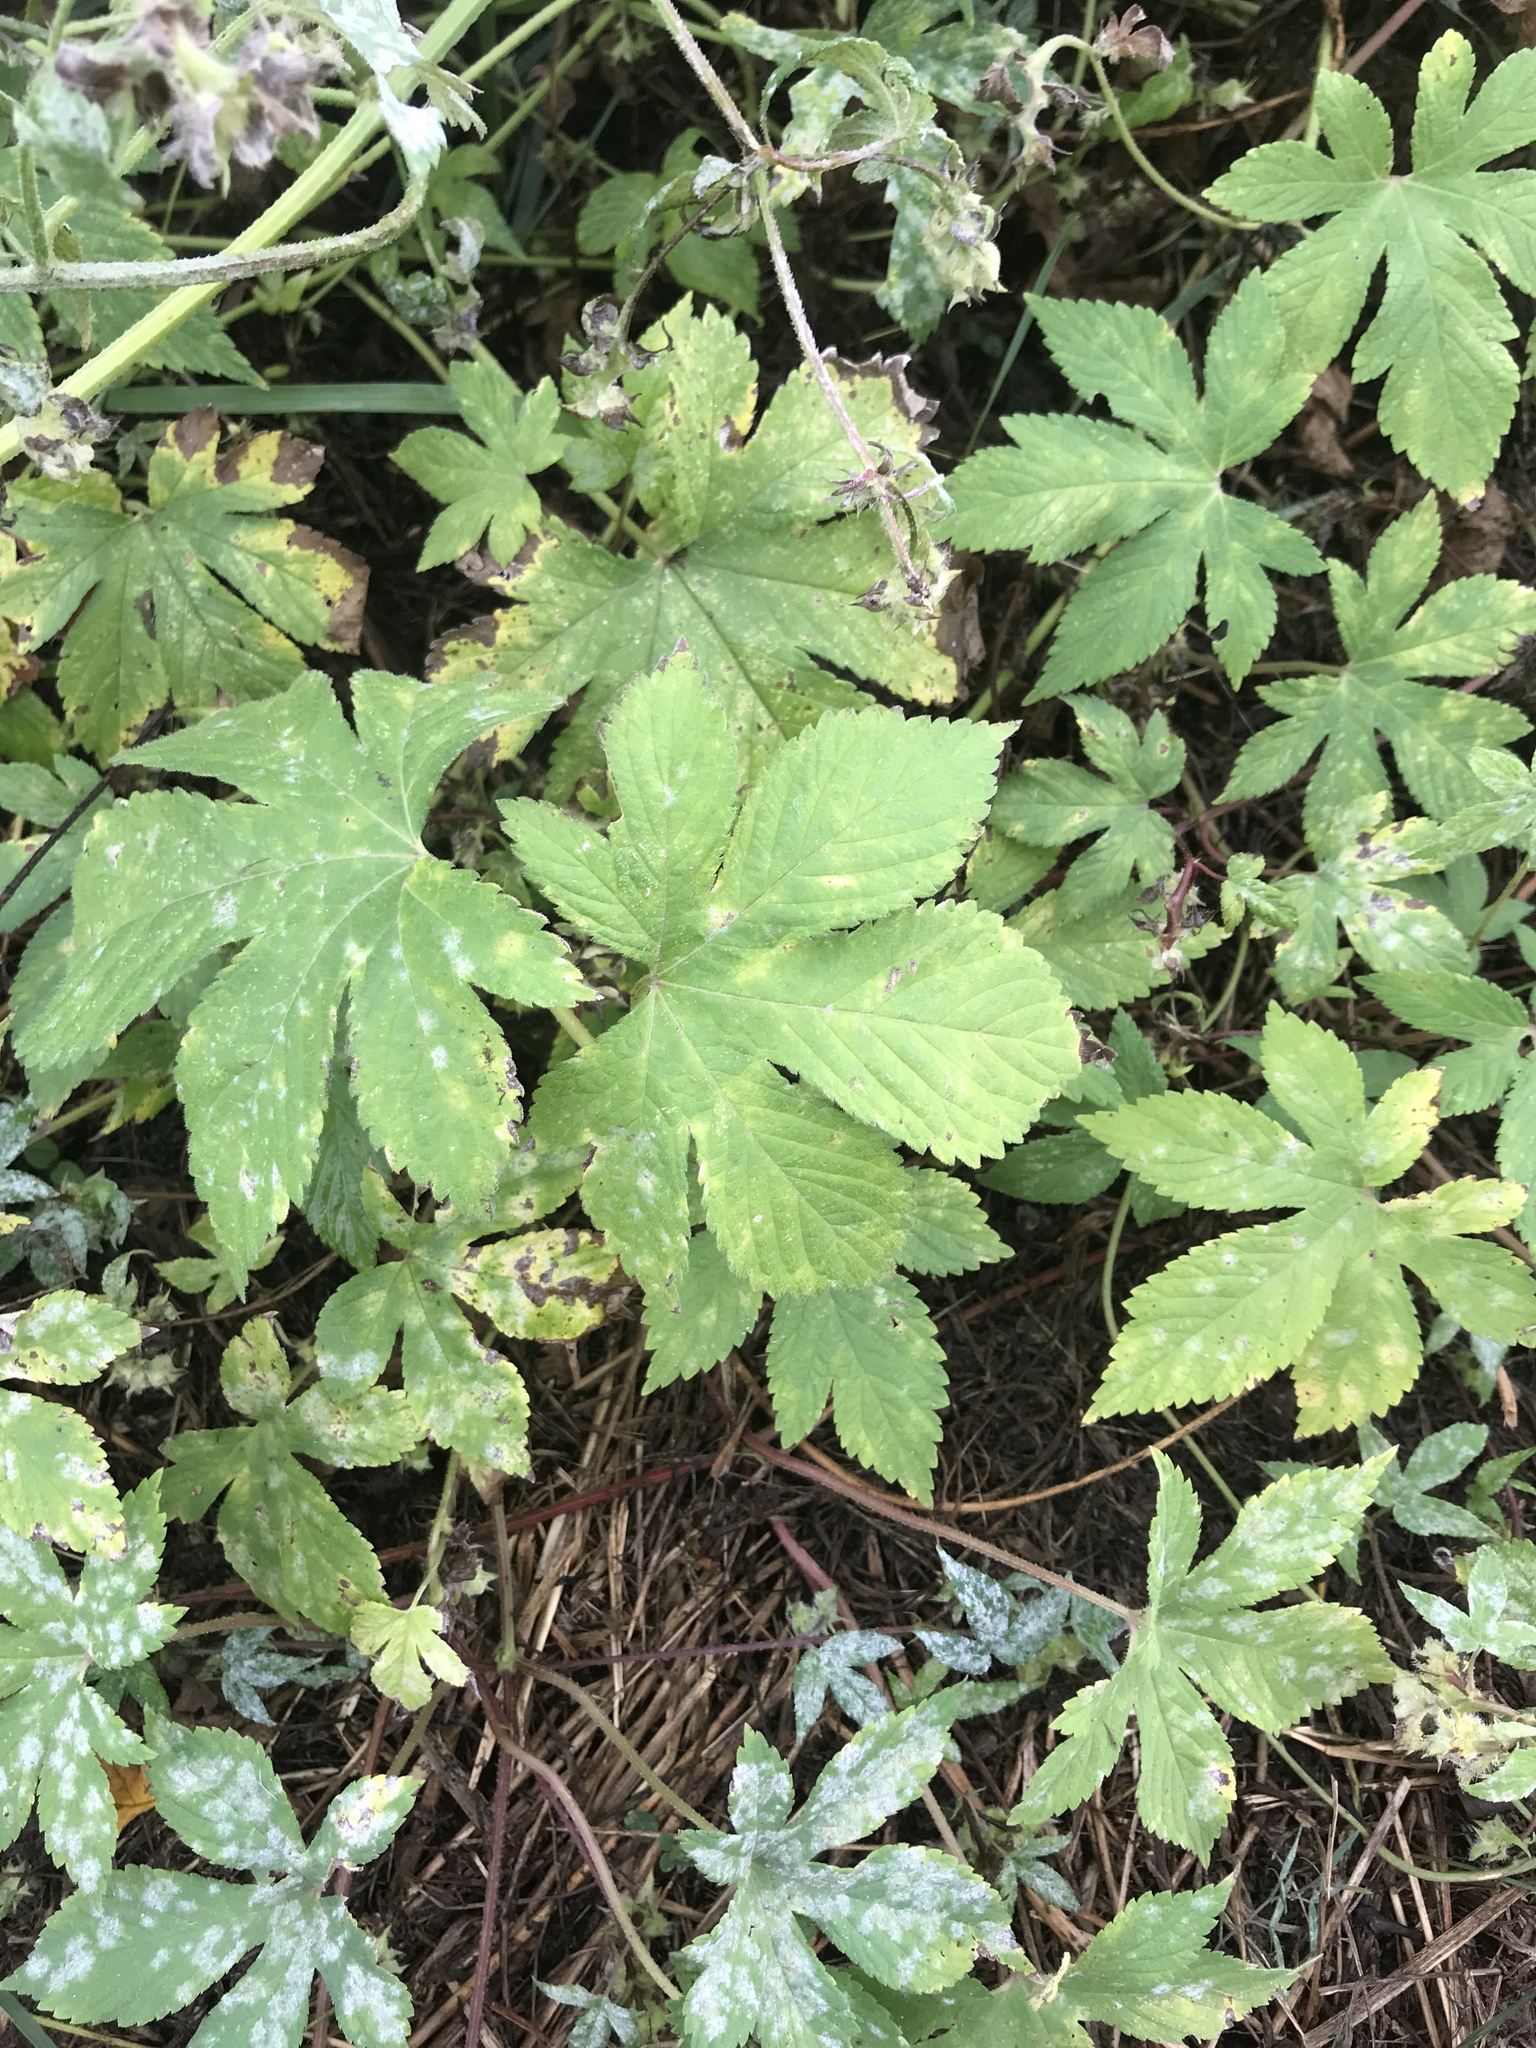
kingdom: Plantae
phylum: Tracheophyta
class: Magnoliopsida
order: Rosales
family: Cannabaceae
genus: Humulus
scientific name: Humulus scandens
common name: Japanese hop
